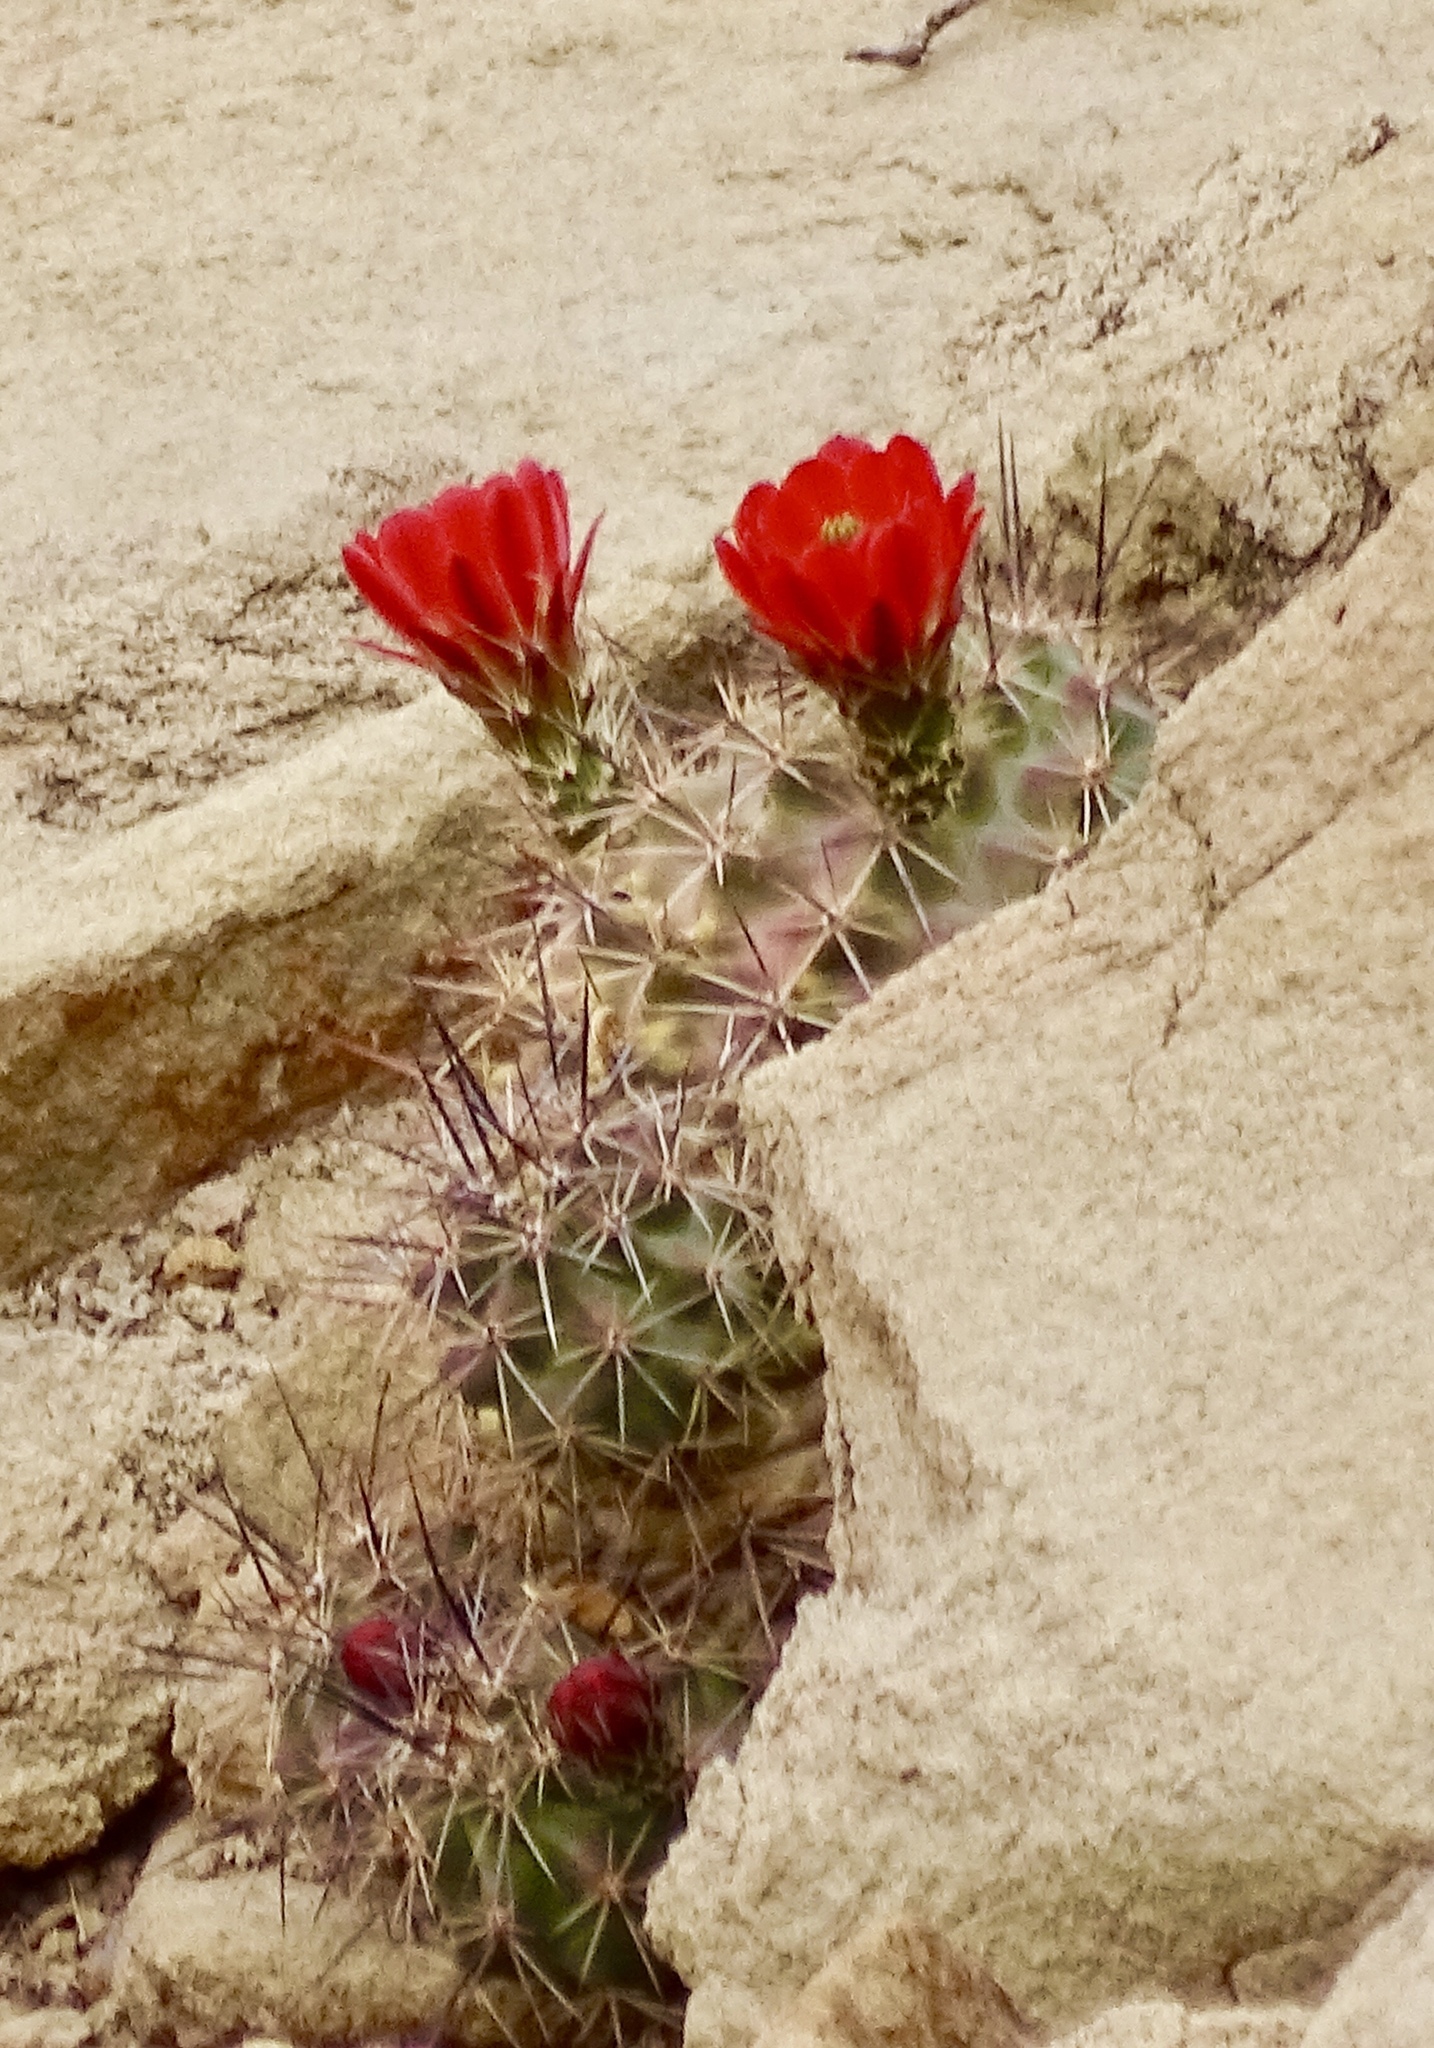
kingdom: Plantae
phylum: Tracheophyta
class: Magnoliopsida
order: Caryophyllales
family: Cactaceae
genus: Echinocereus
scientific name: Echinocereus coccineus
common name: Scarlet hedgehog cactus
